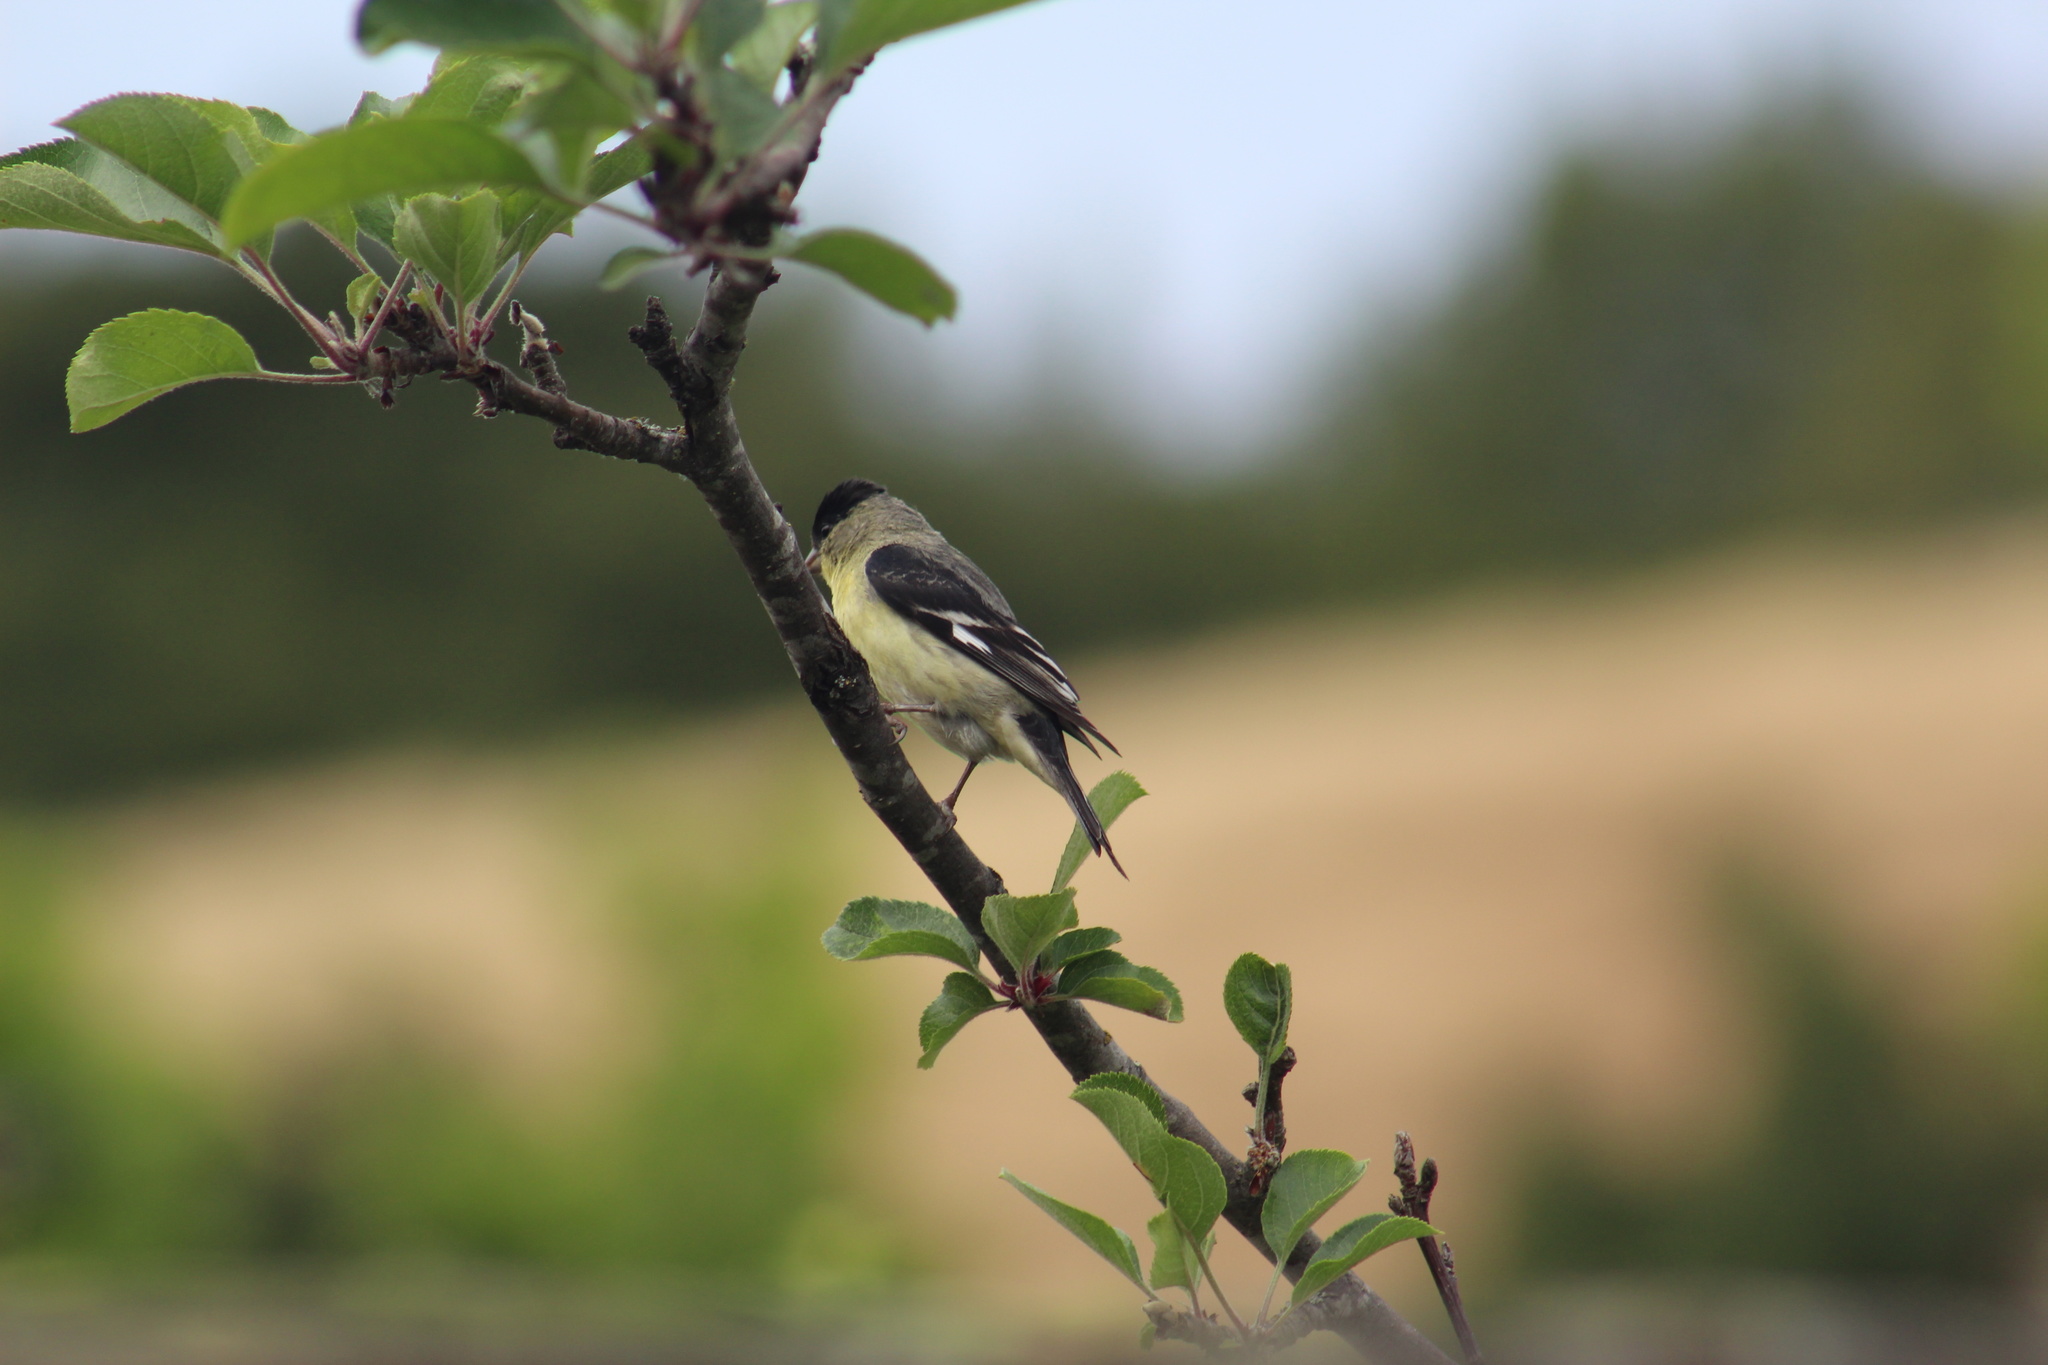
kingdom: Animalia
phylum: Chordata
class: Aves
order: Passeriformes
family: Fringillidae
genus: Spinus
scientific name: Spinus psaltria
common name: Lesser goldfinch
